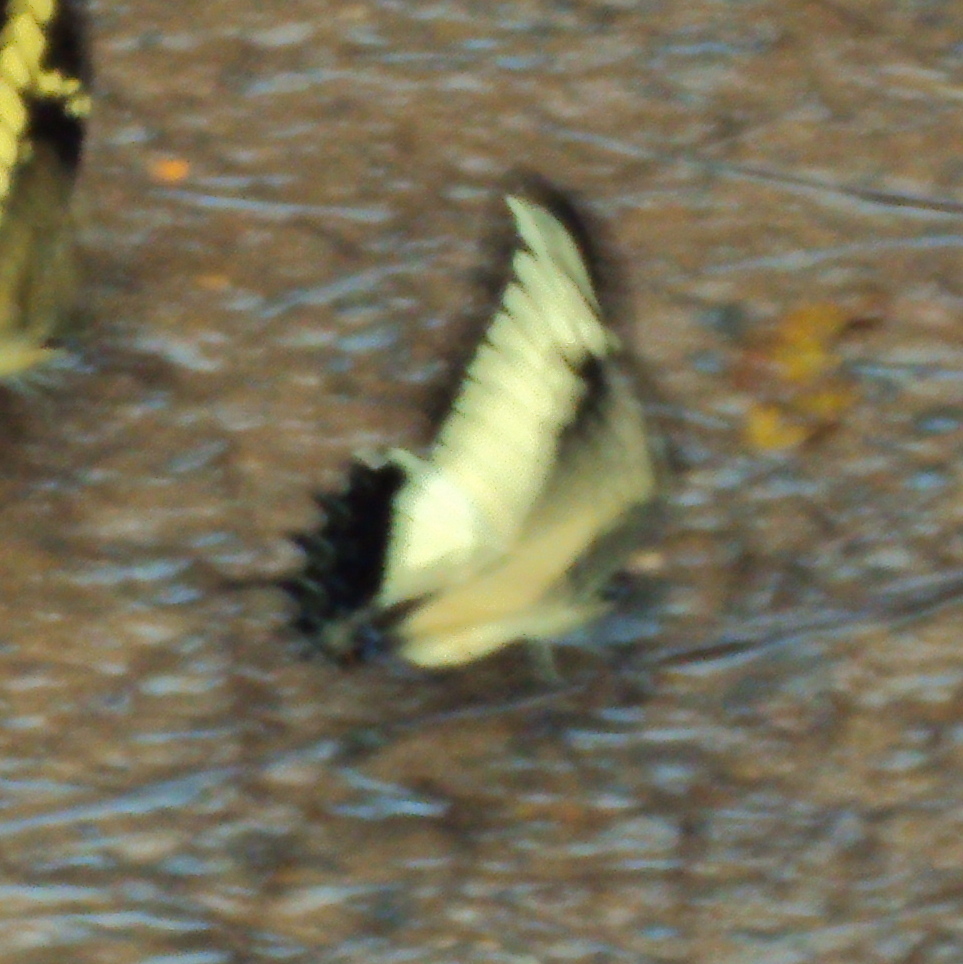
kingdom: Animalia
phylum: Arthropoda
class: Insecta
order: Lepidoptera
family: Papilionidae
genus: Papilio
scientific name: Papilio androgeus
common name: Androgeus swallowtail
